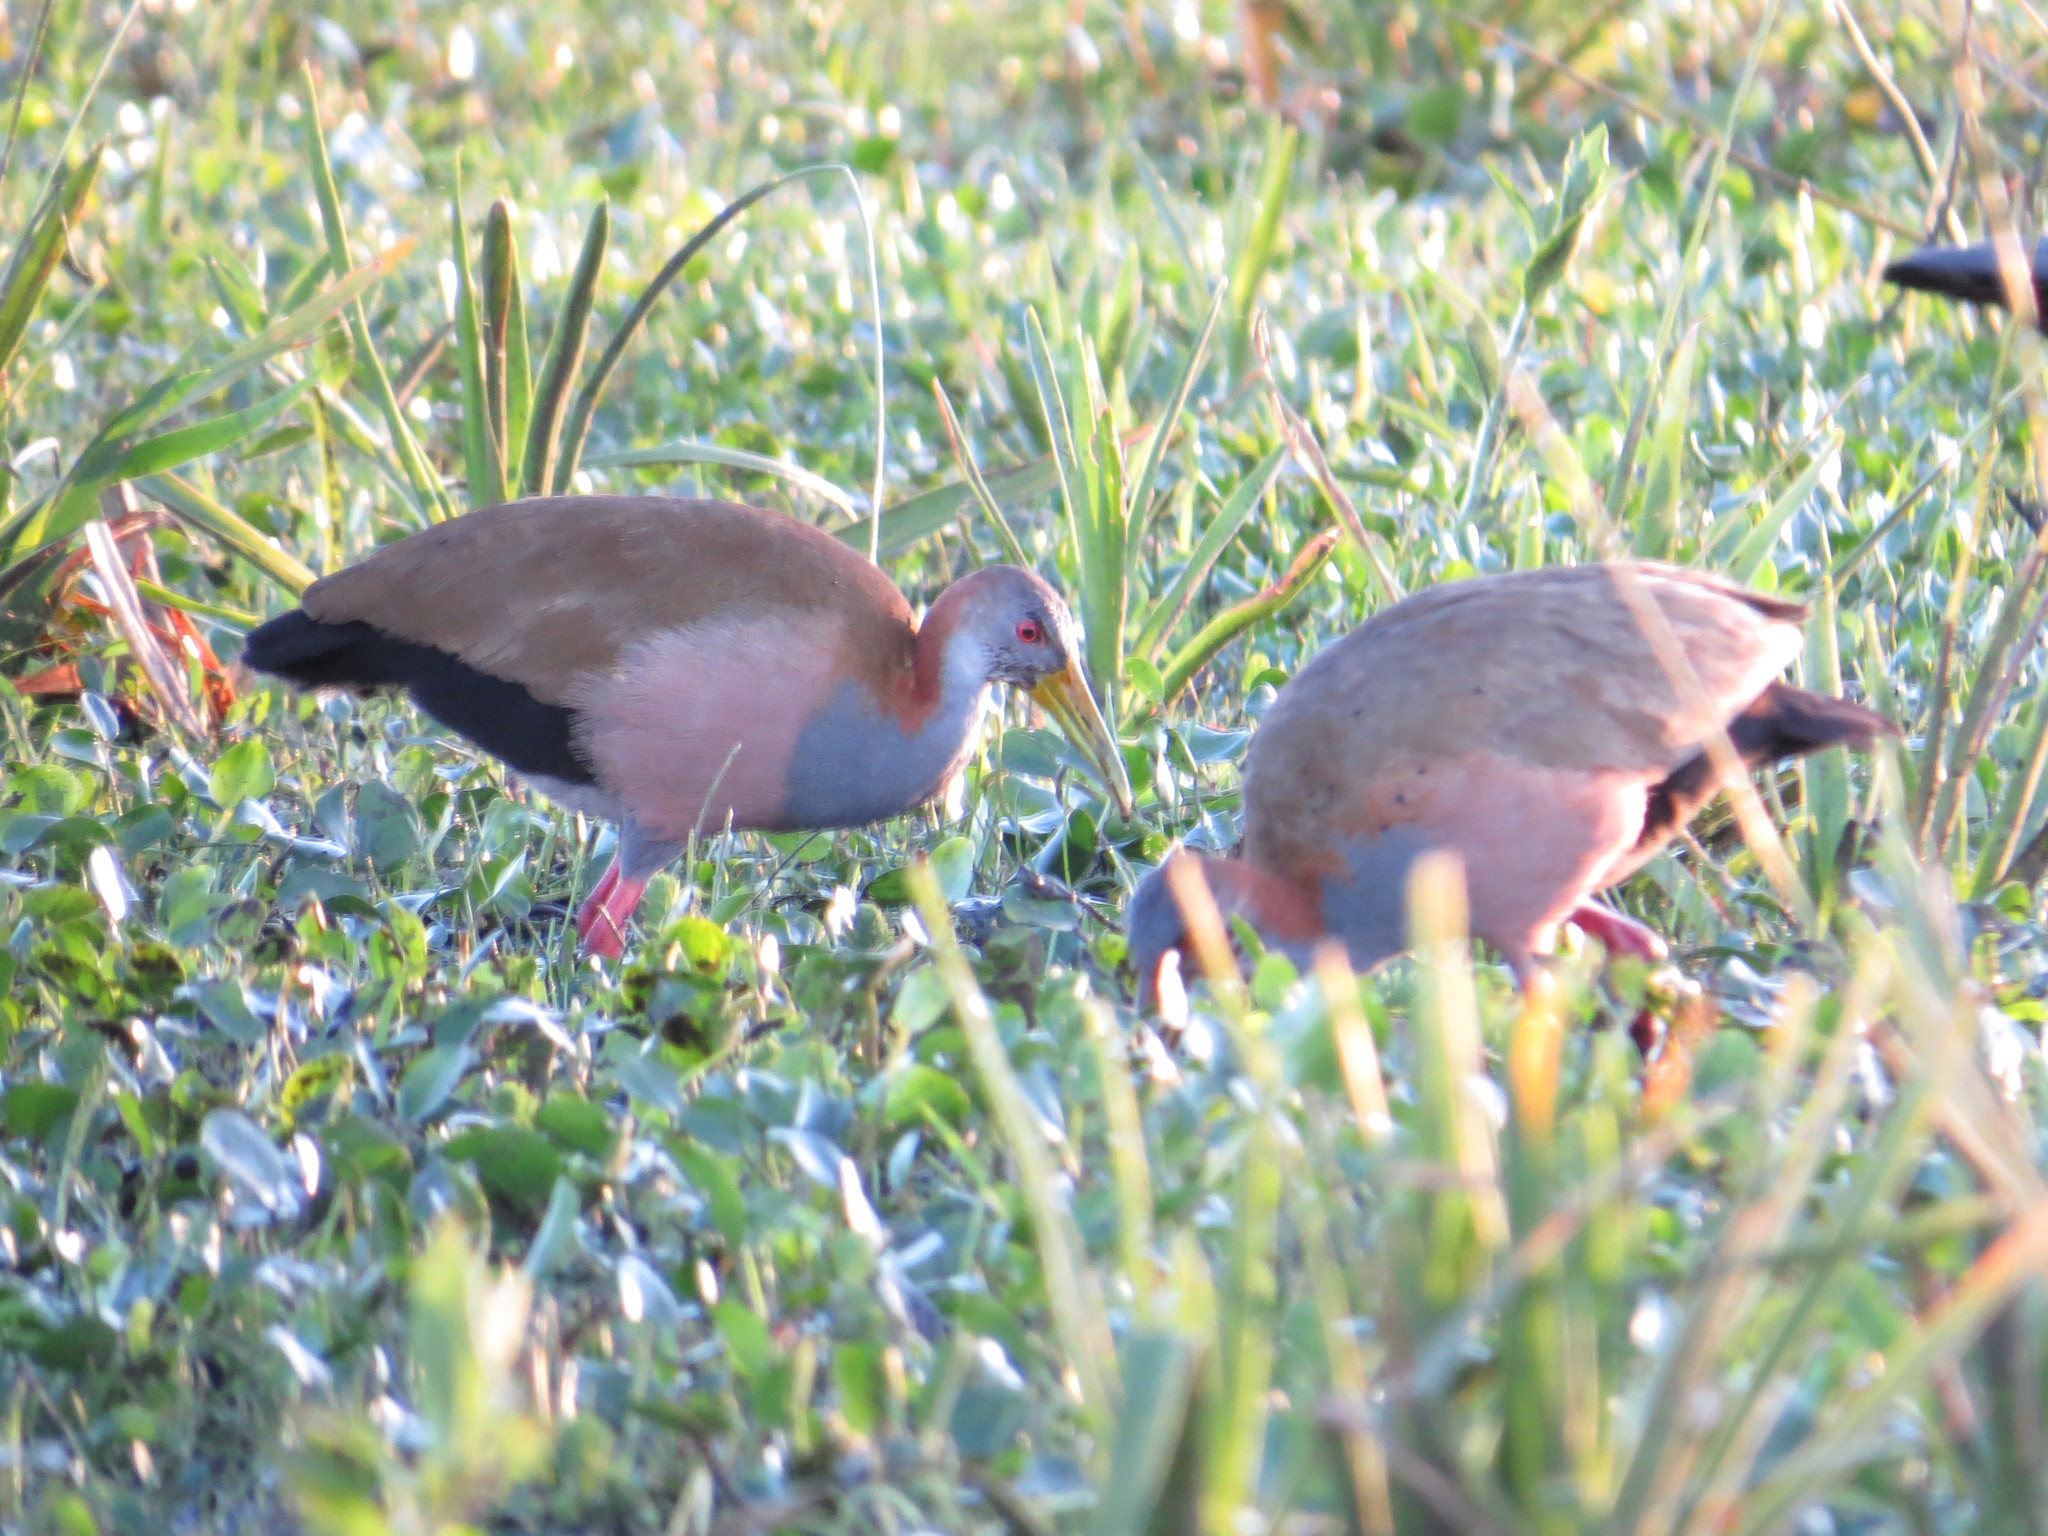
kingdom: Animalia
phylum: Chordata
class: Aves
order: Gruiformes
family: Rallidae
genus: Aramides
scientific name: Aramides ypecaha
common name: Giant wood rail
